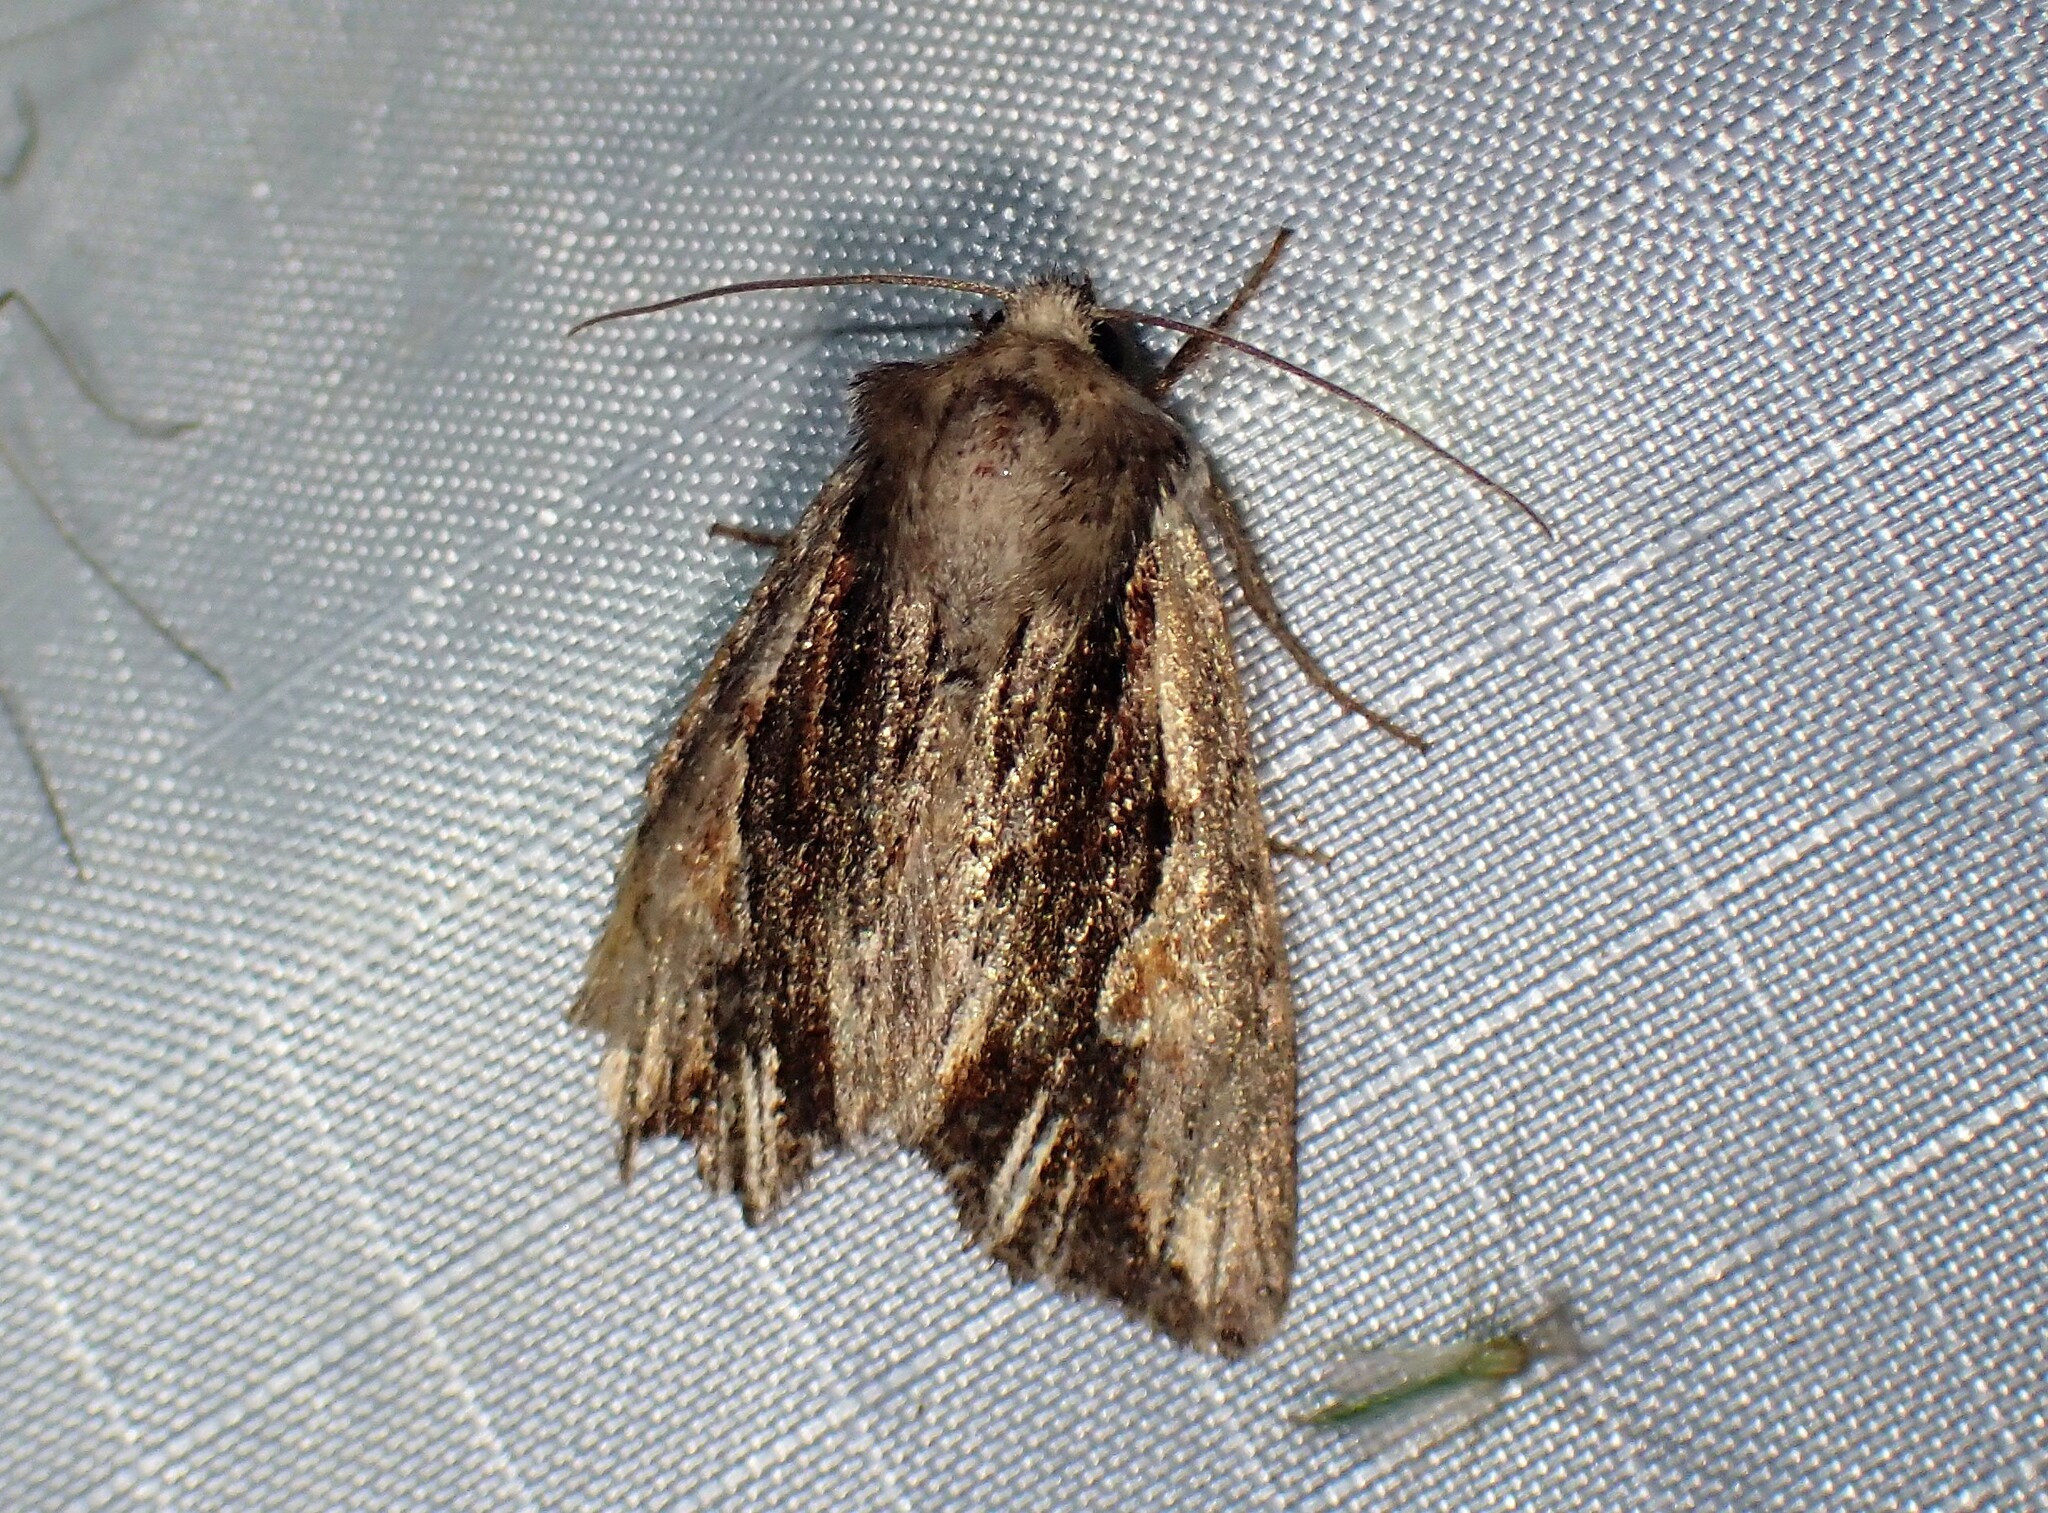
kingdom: Animalia
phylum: Arthropoda
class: Insecta
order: Lepidoptera
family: Noctuidae
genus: Achatia
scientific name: Achatia evicta
